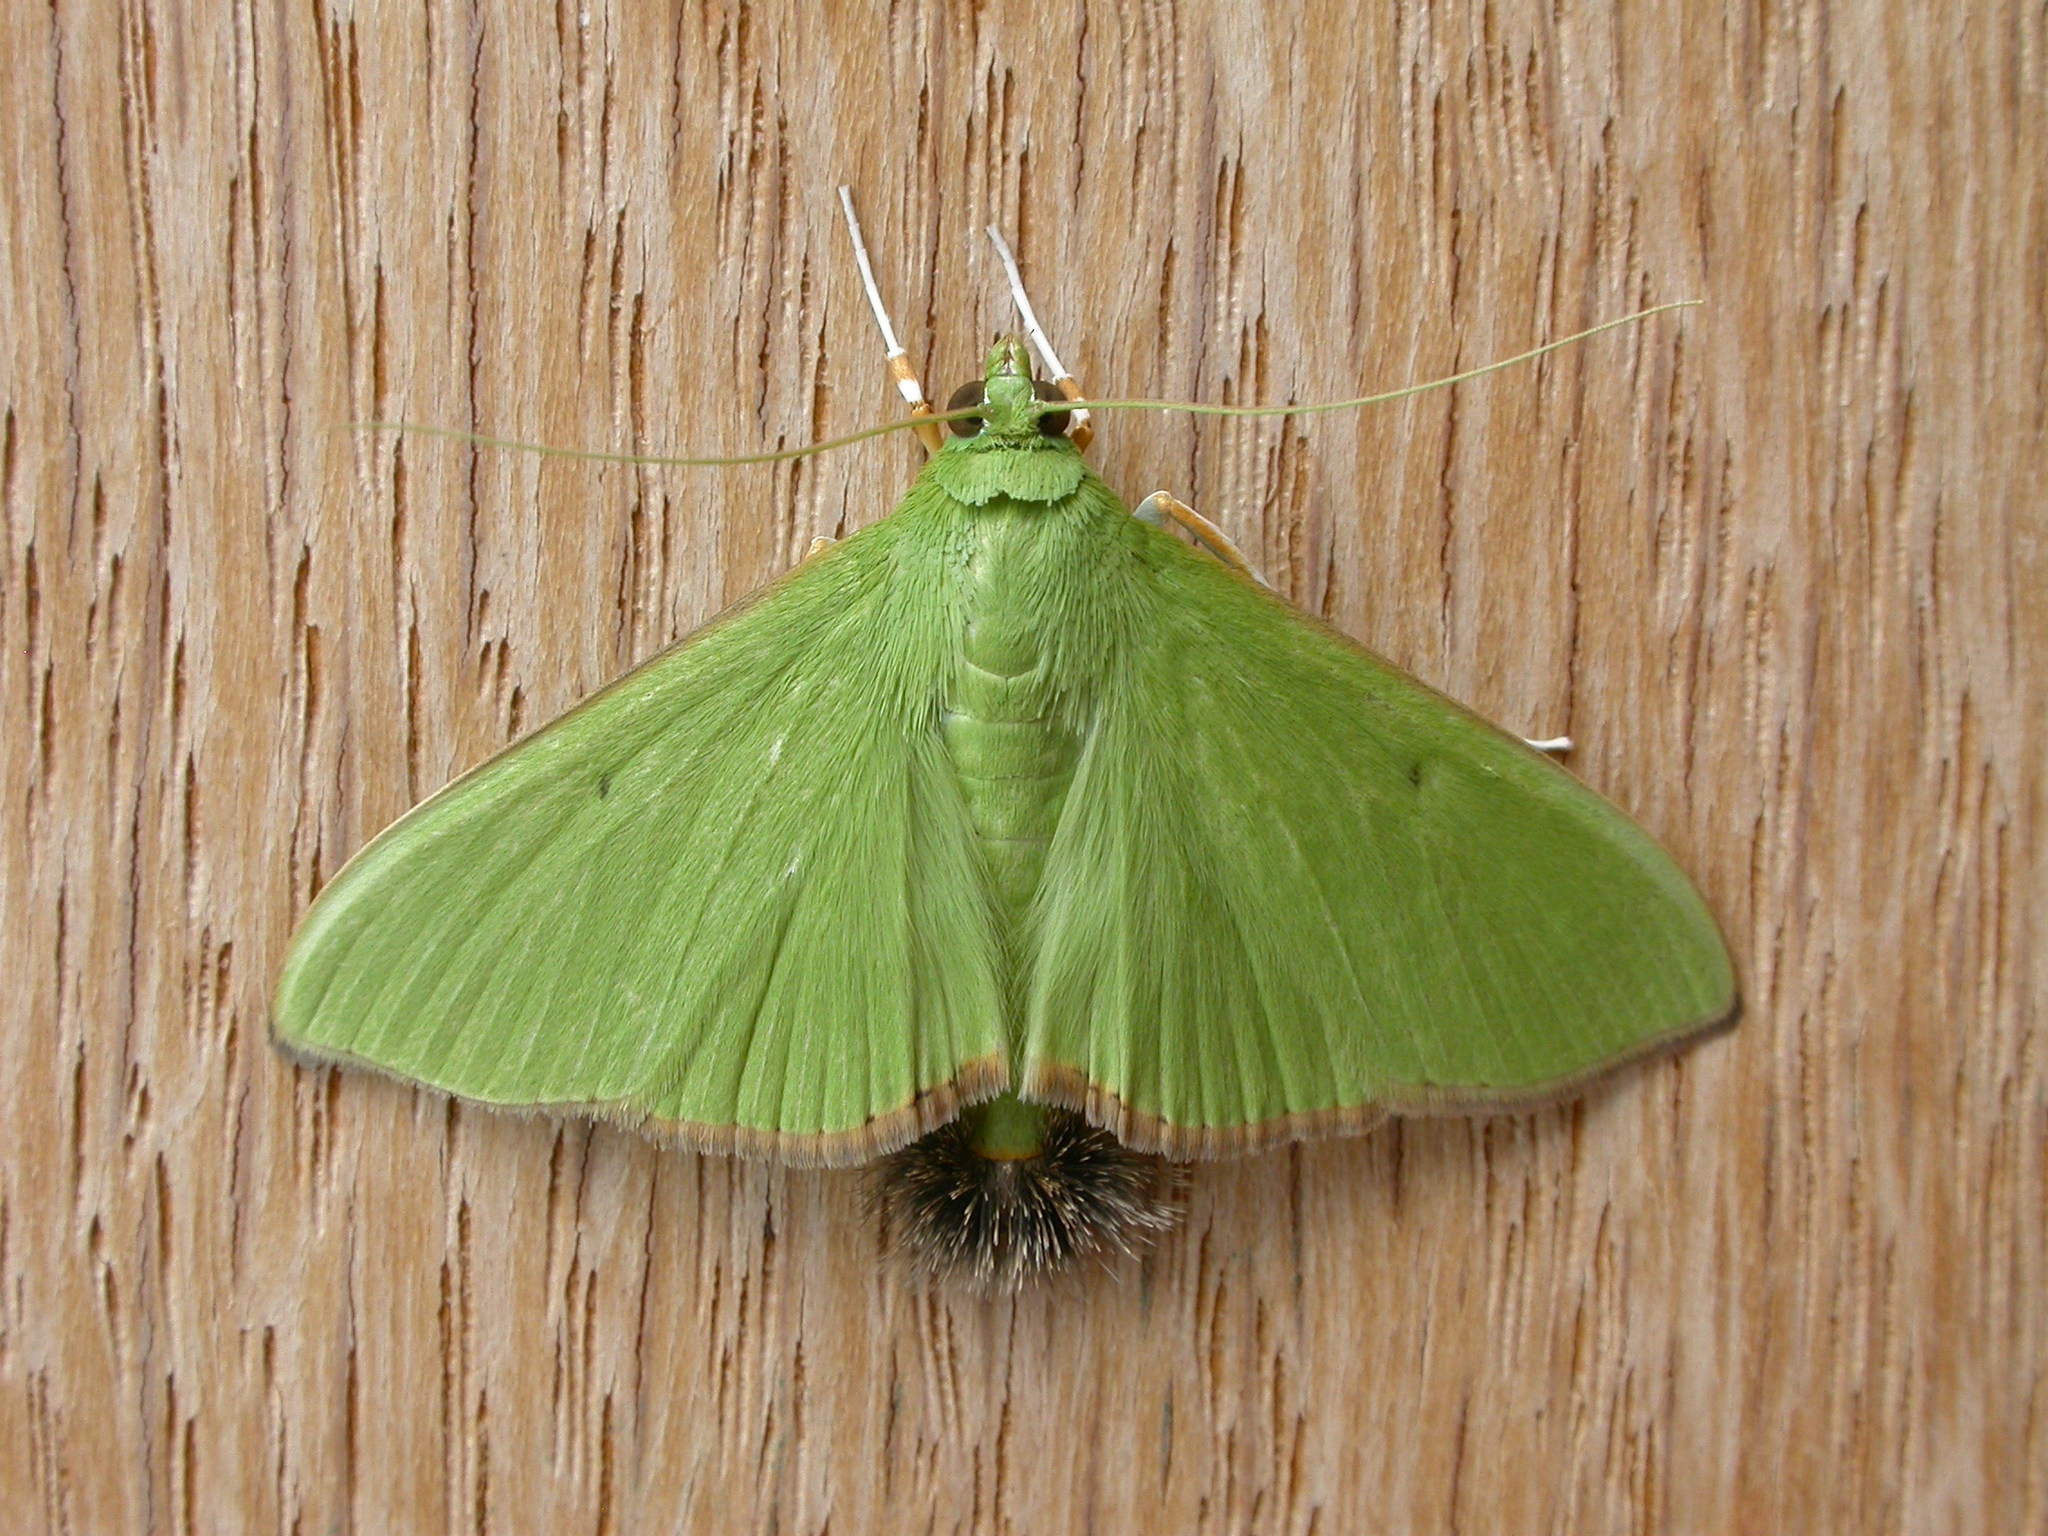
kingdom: Animalia
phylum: Arthropoda
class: Insecta
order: Lepidoptera
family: Crambidae
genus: Parotis
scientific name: Parotis marginata
